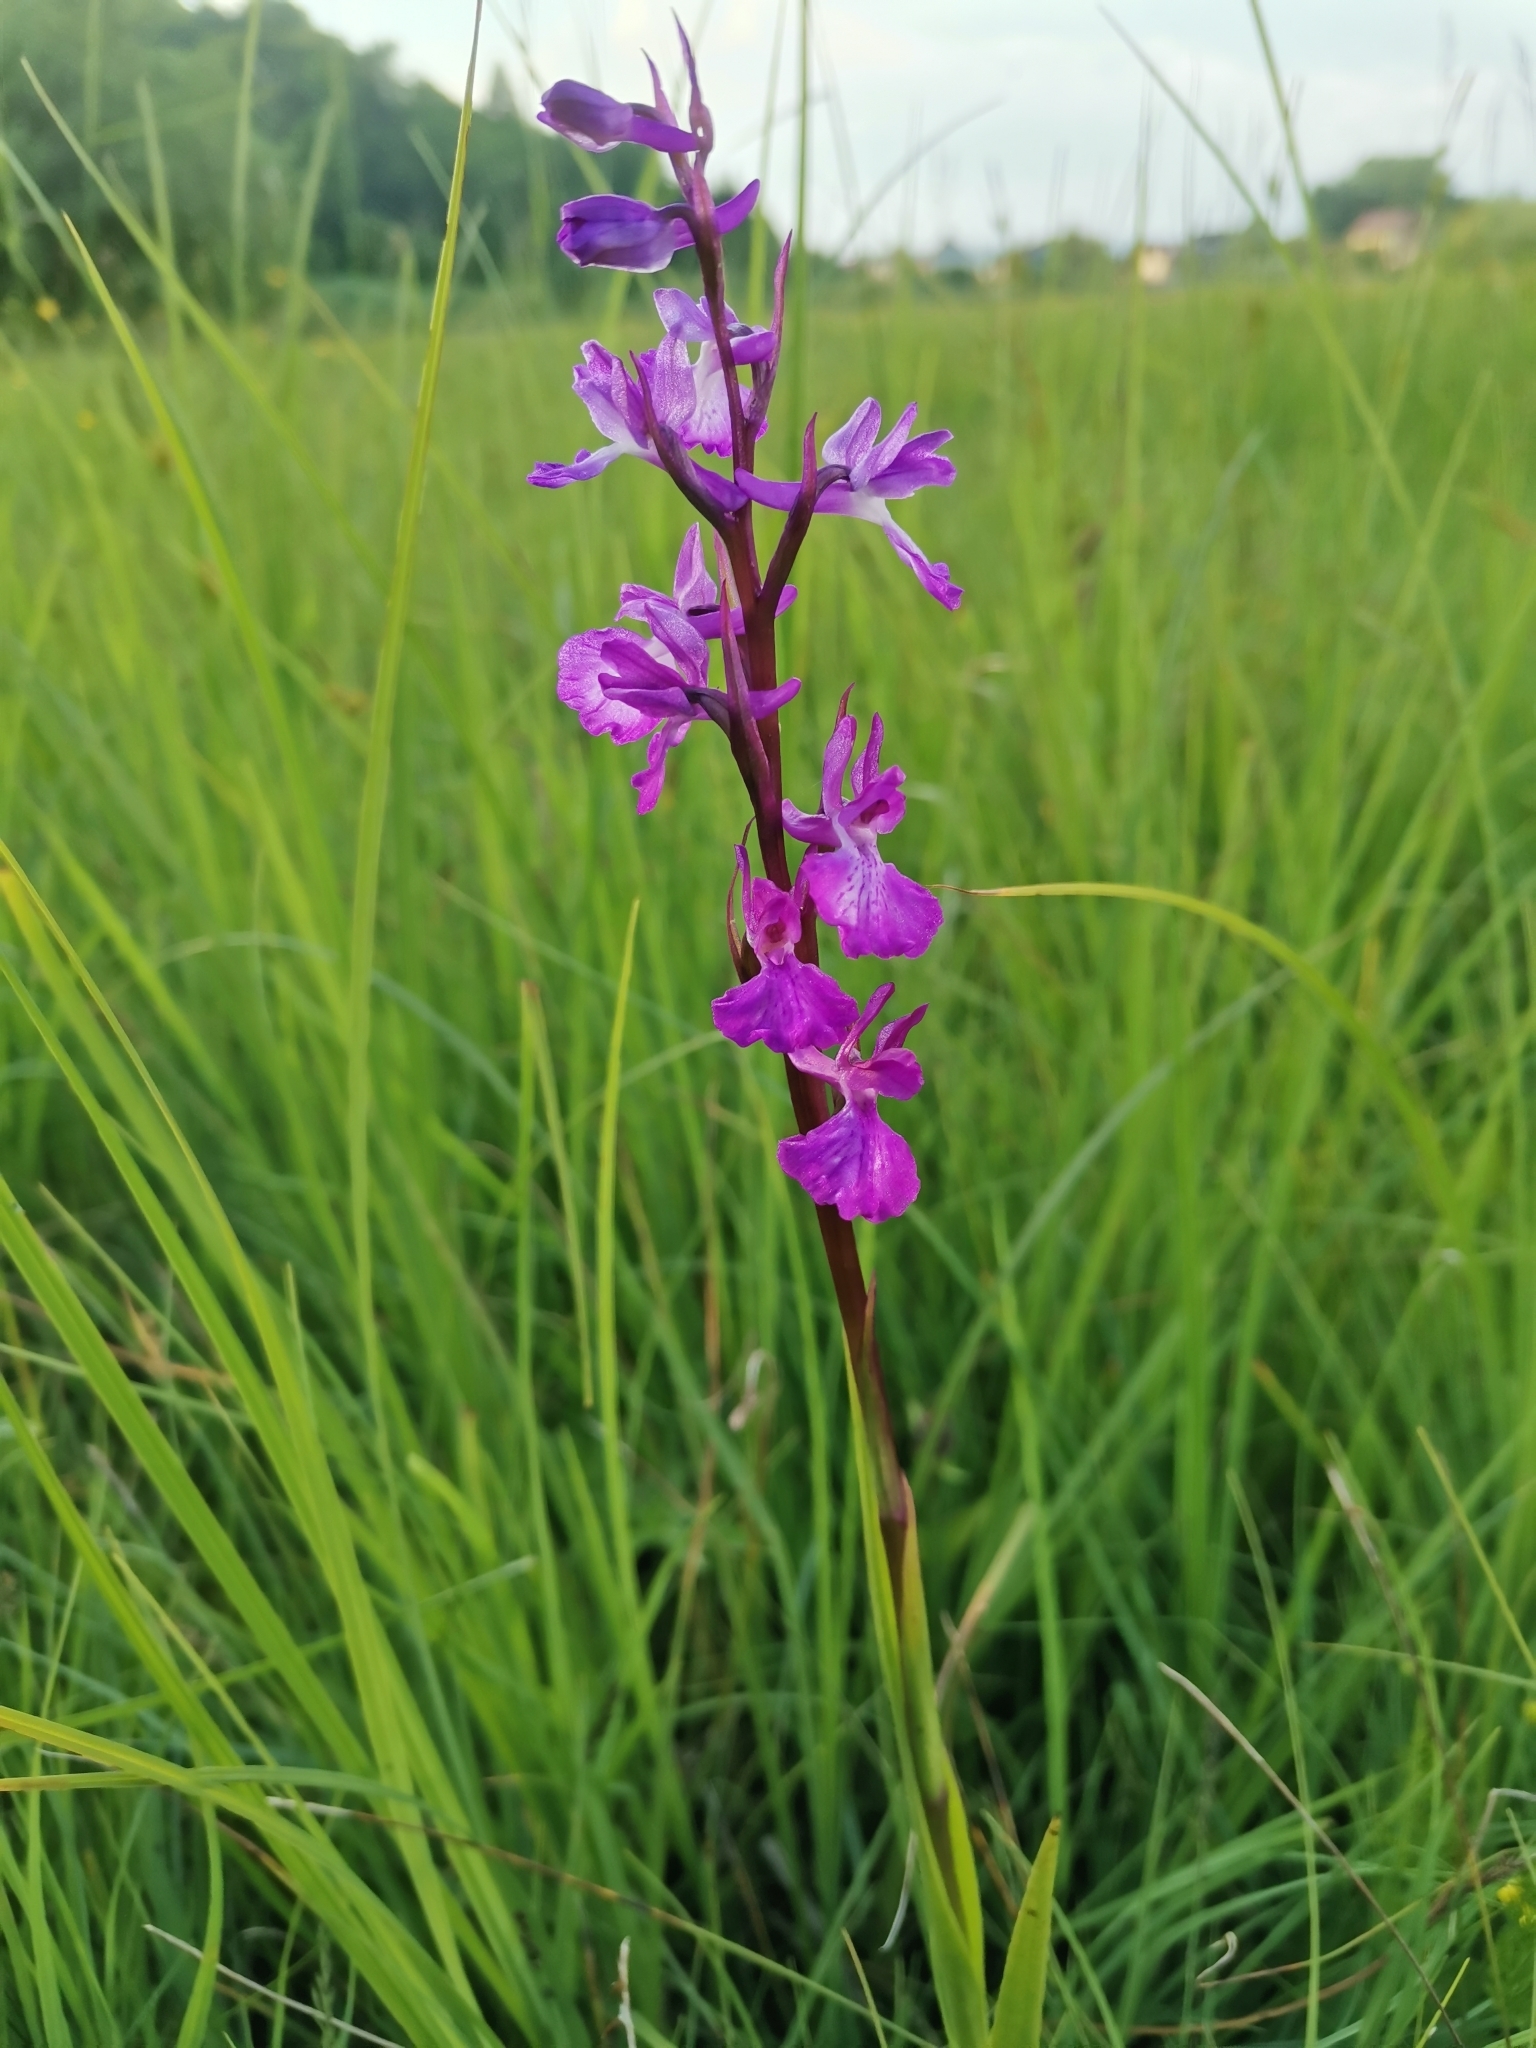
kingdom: Plantae
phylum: Tracheophyta
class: Liliopsida
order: Asparagales
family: Orchidaceae
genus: Anacamptis
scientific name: Anacamptis palustris
